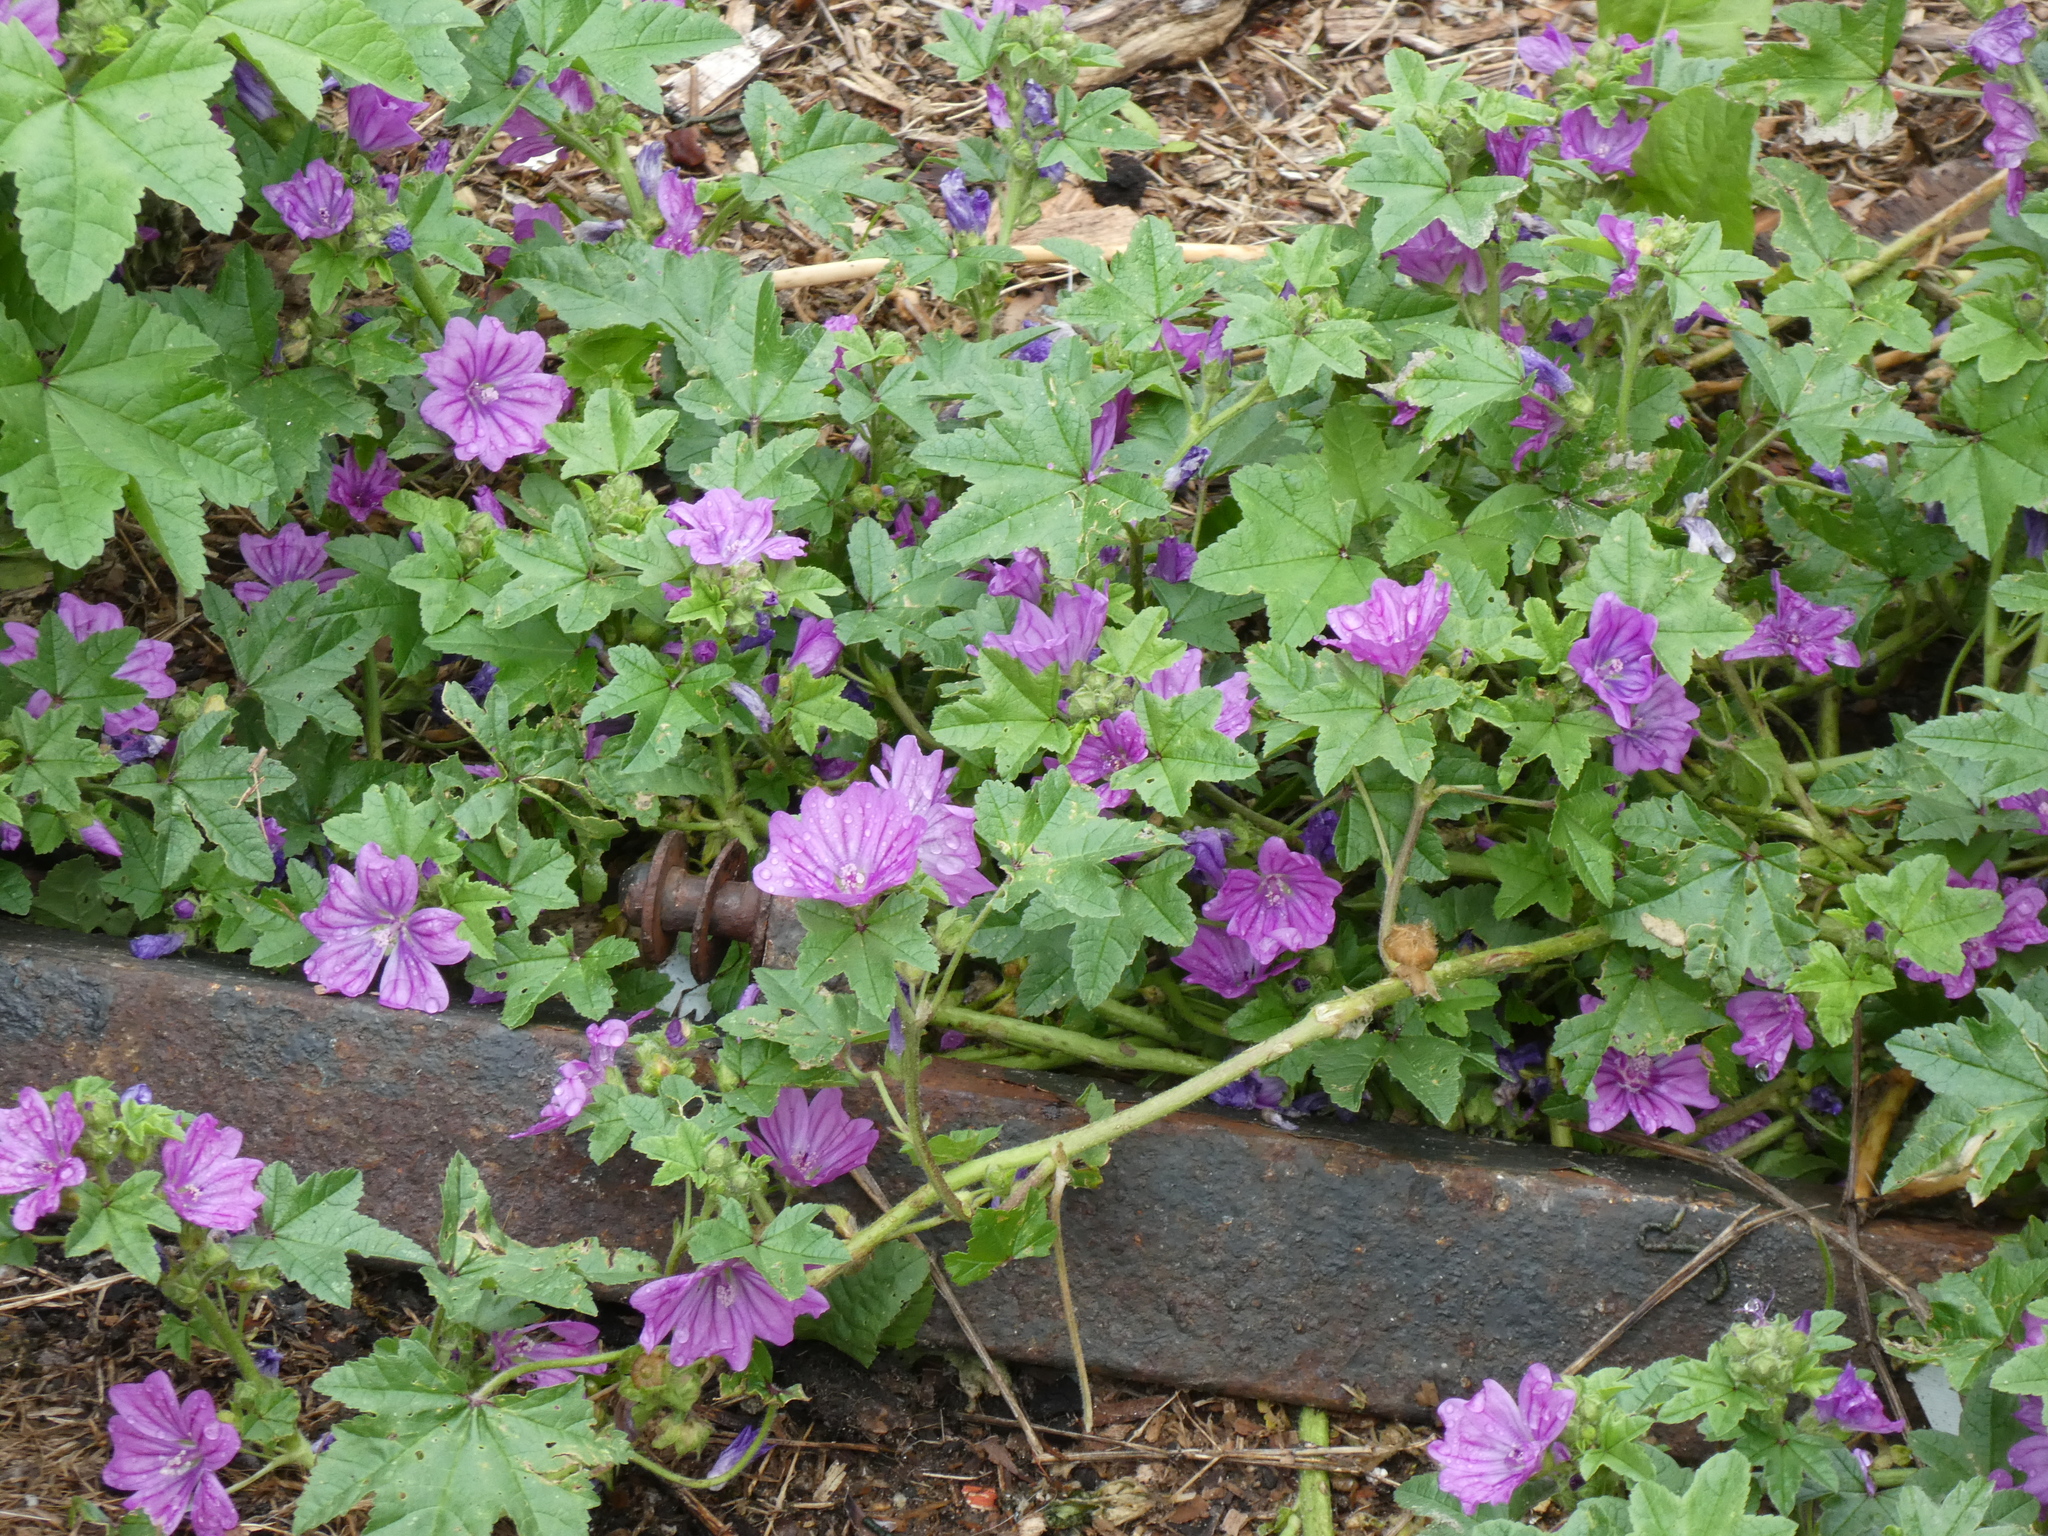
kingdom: Plantae
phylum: Tracheophyta
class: Magnoliopsida
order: Malvales
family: Malvaceae
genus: Malva
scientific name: Malva sylvestris
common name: Common mallow
